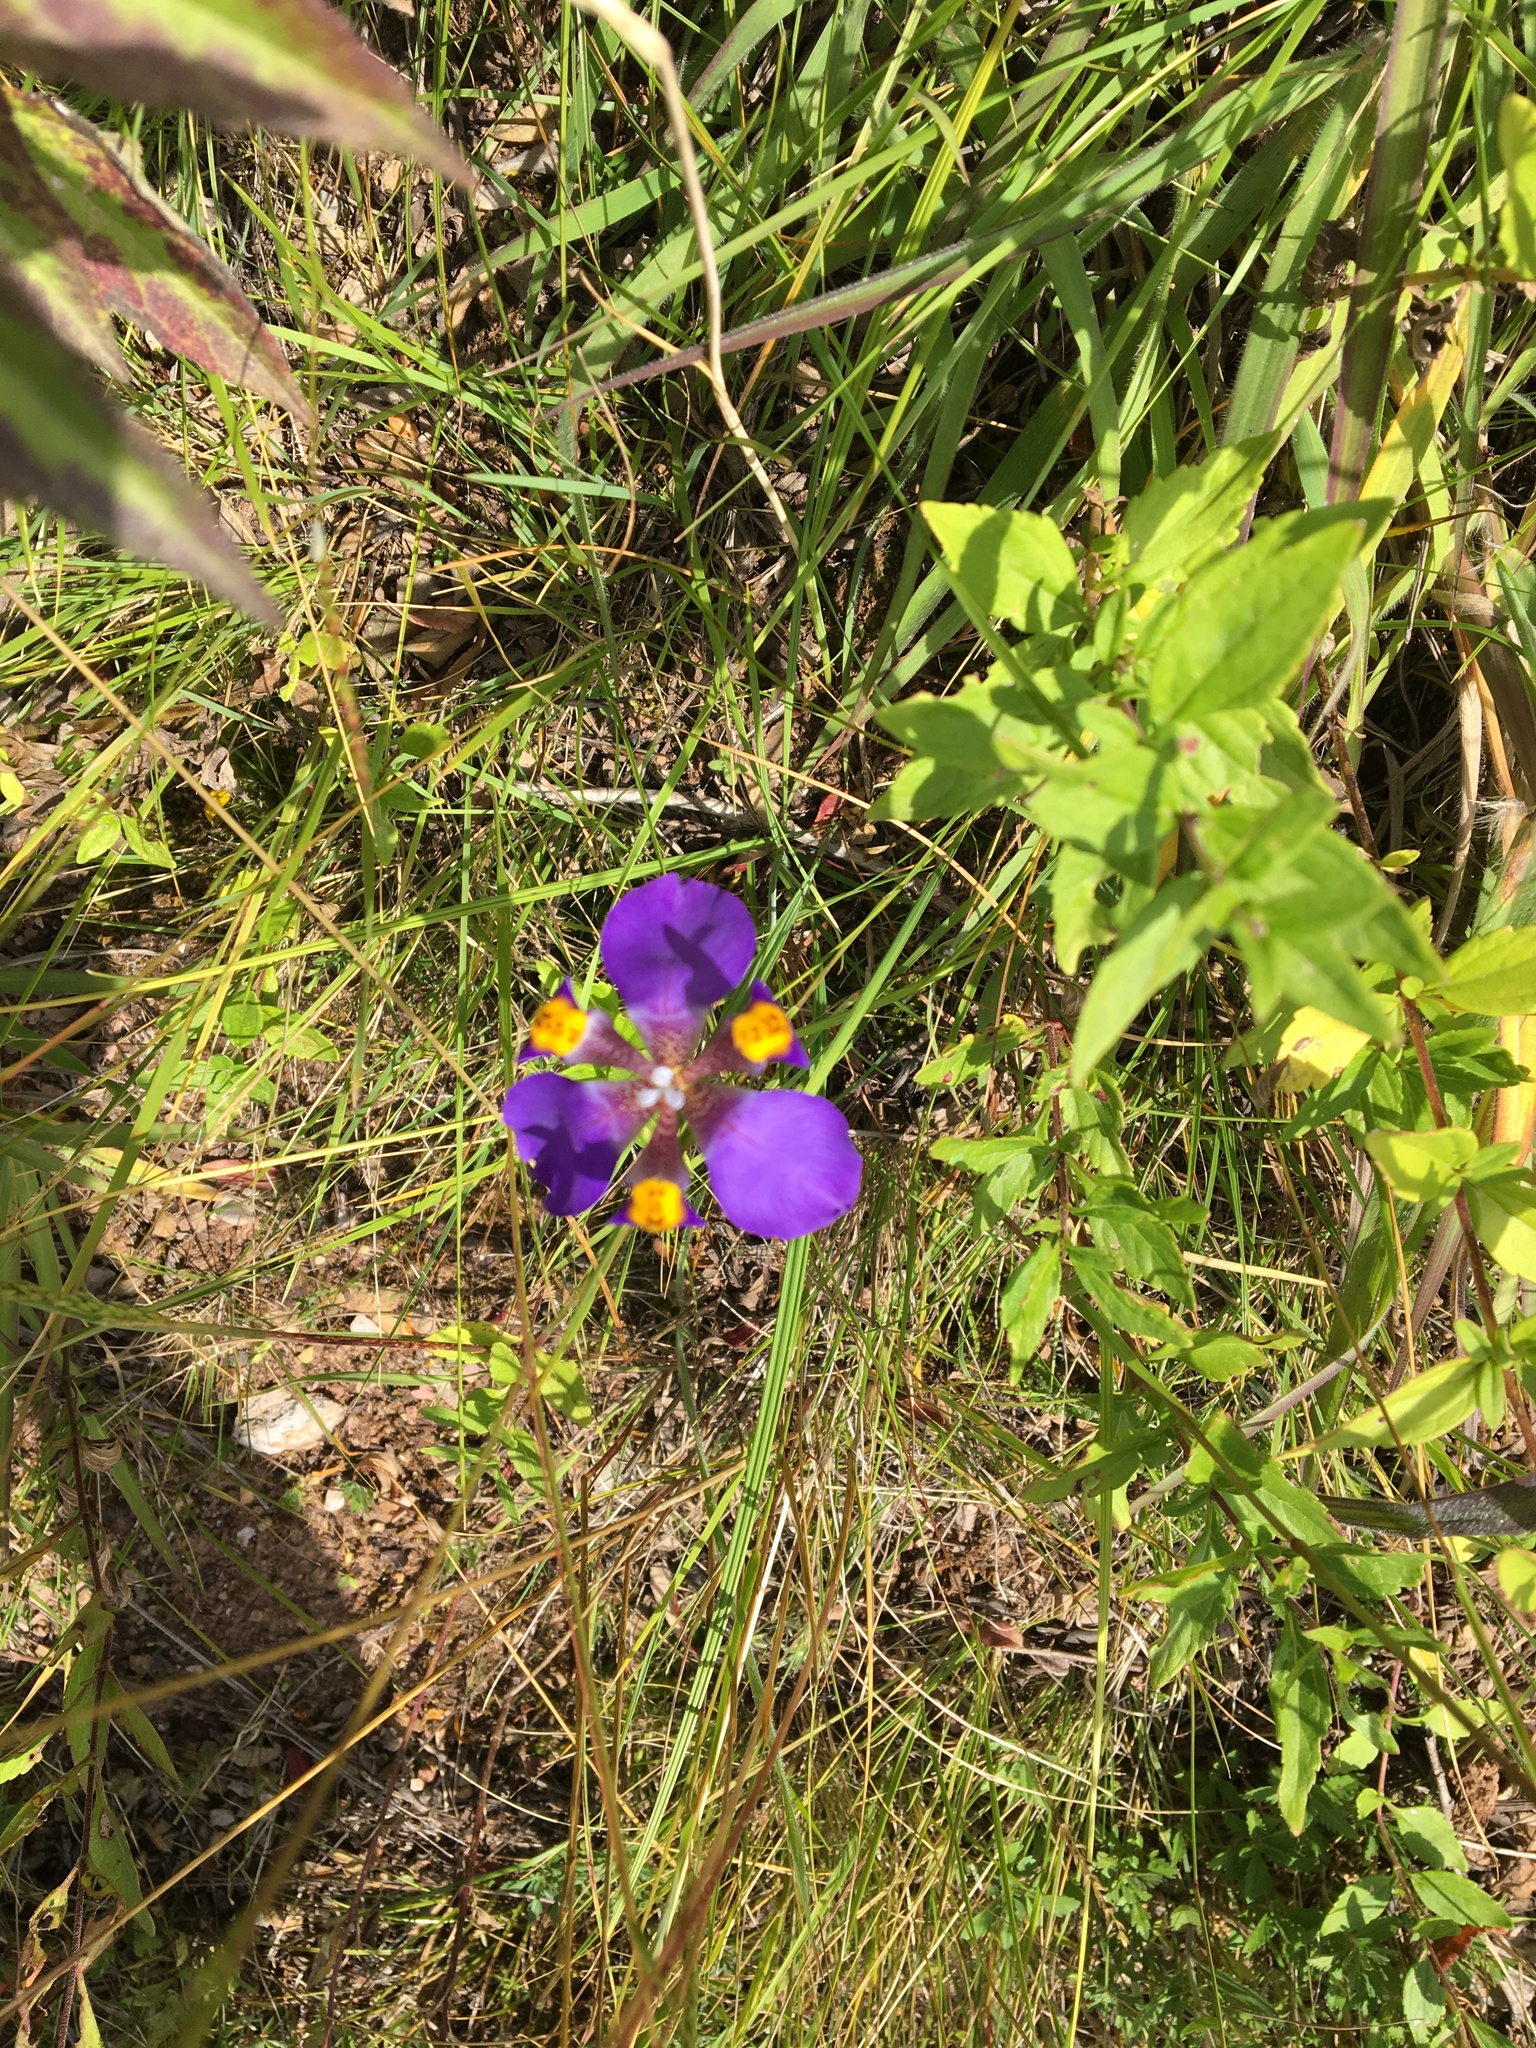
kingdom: Plantae
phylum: Tracheophyta
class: Liliopsida
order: Asparagales
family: Iridaceae
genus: Hesperoxiphion
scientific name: Hesperoxiphion herrerae
